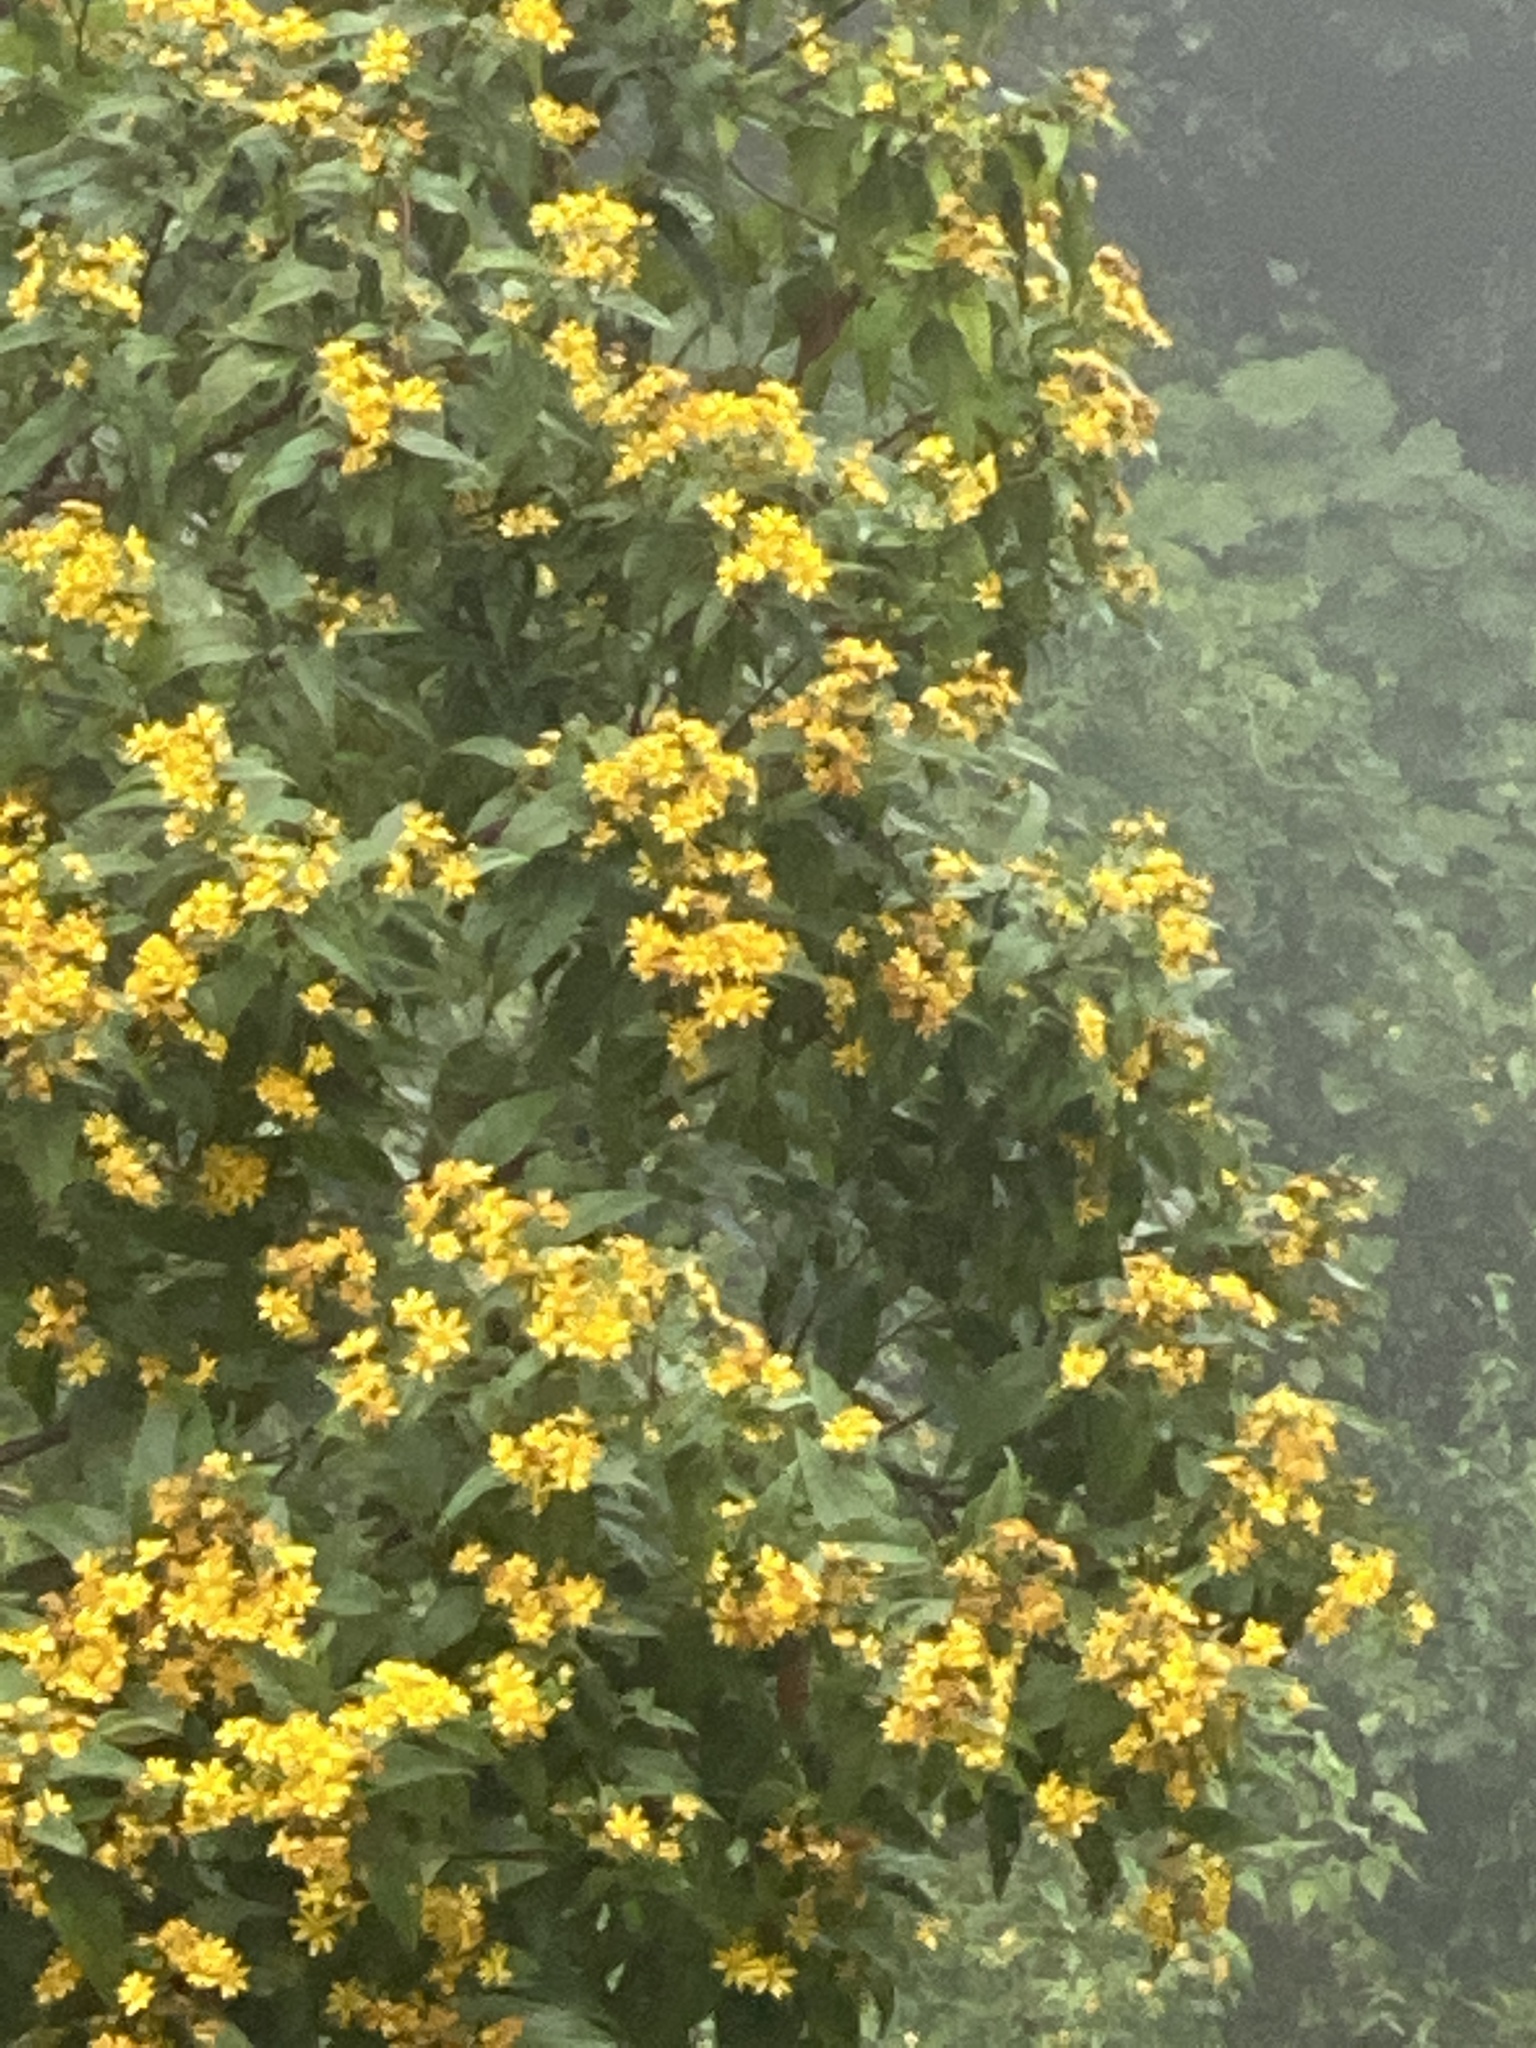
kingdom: Plantae
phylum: Tracheophyta
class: Magnoliopsida
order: Asterales
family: Asteraceae
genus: Perymenium
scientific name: Perymenium grande
